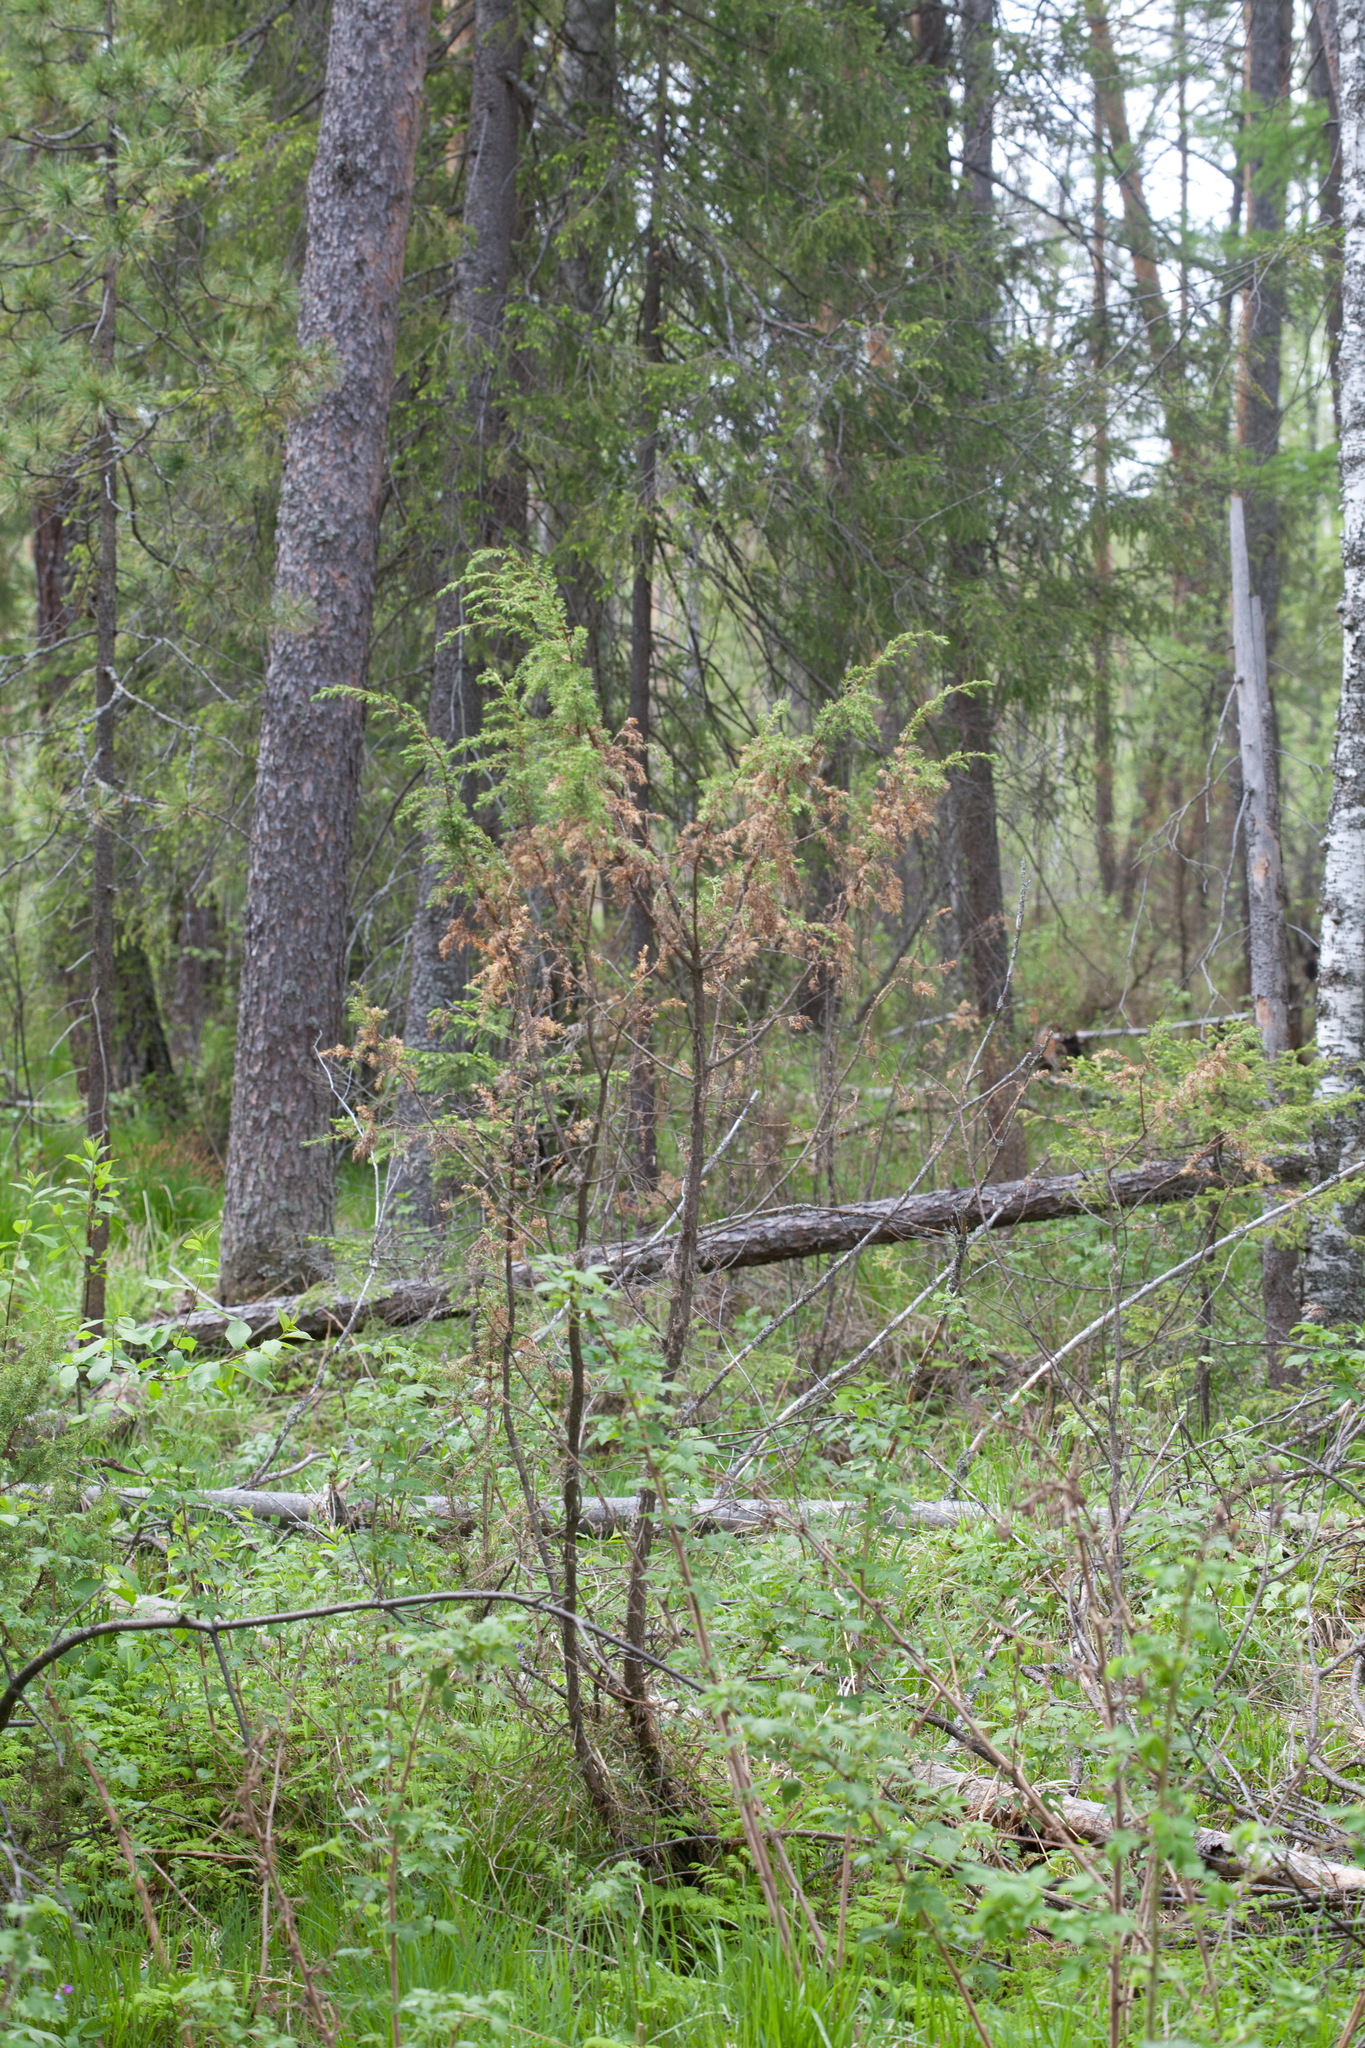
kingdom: Plantae
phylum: Tracheophyta
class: Pinopsida
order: Pinales
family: Cupressaceae
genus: Juniperus
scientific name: Juniperus communis
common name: Common juniper
